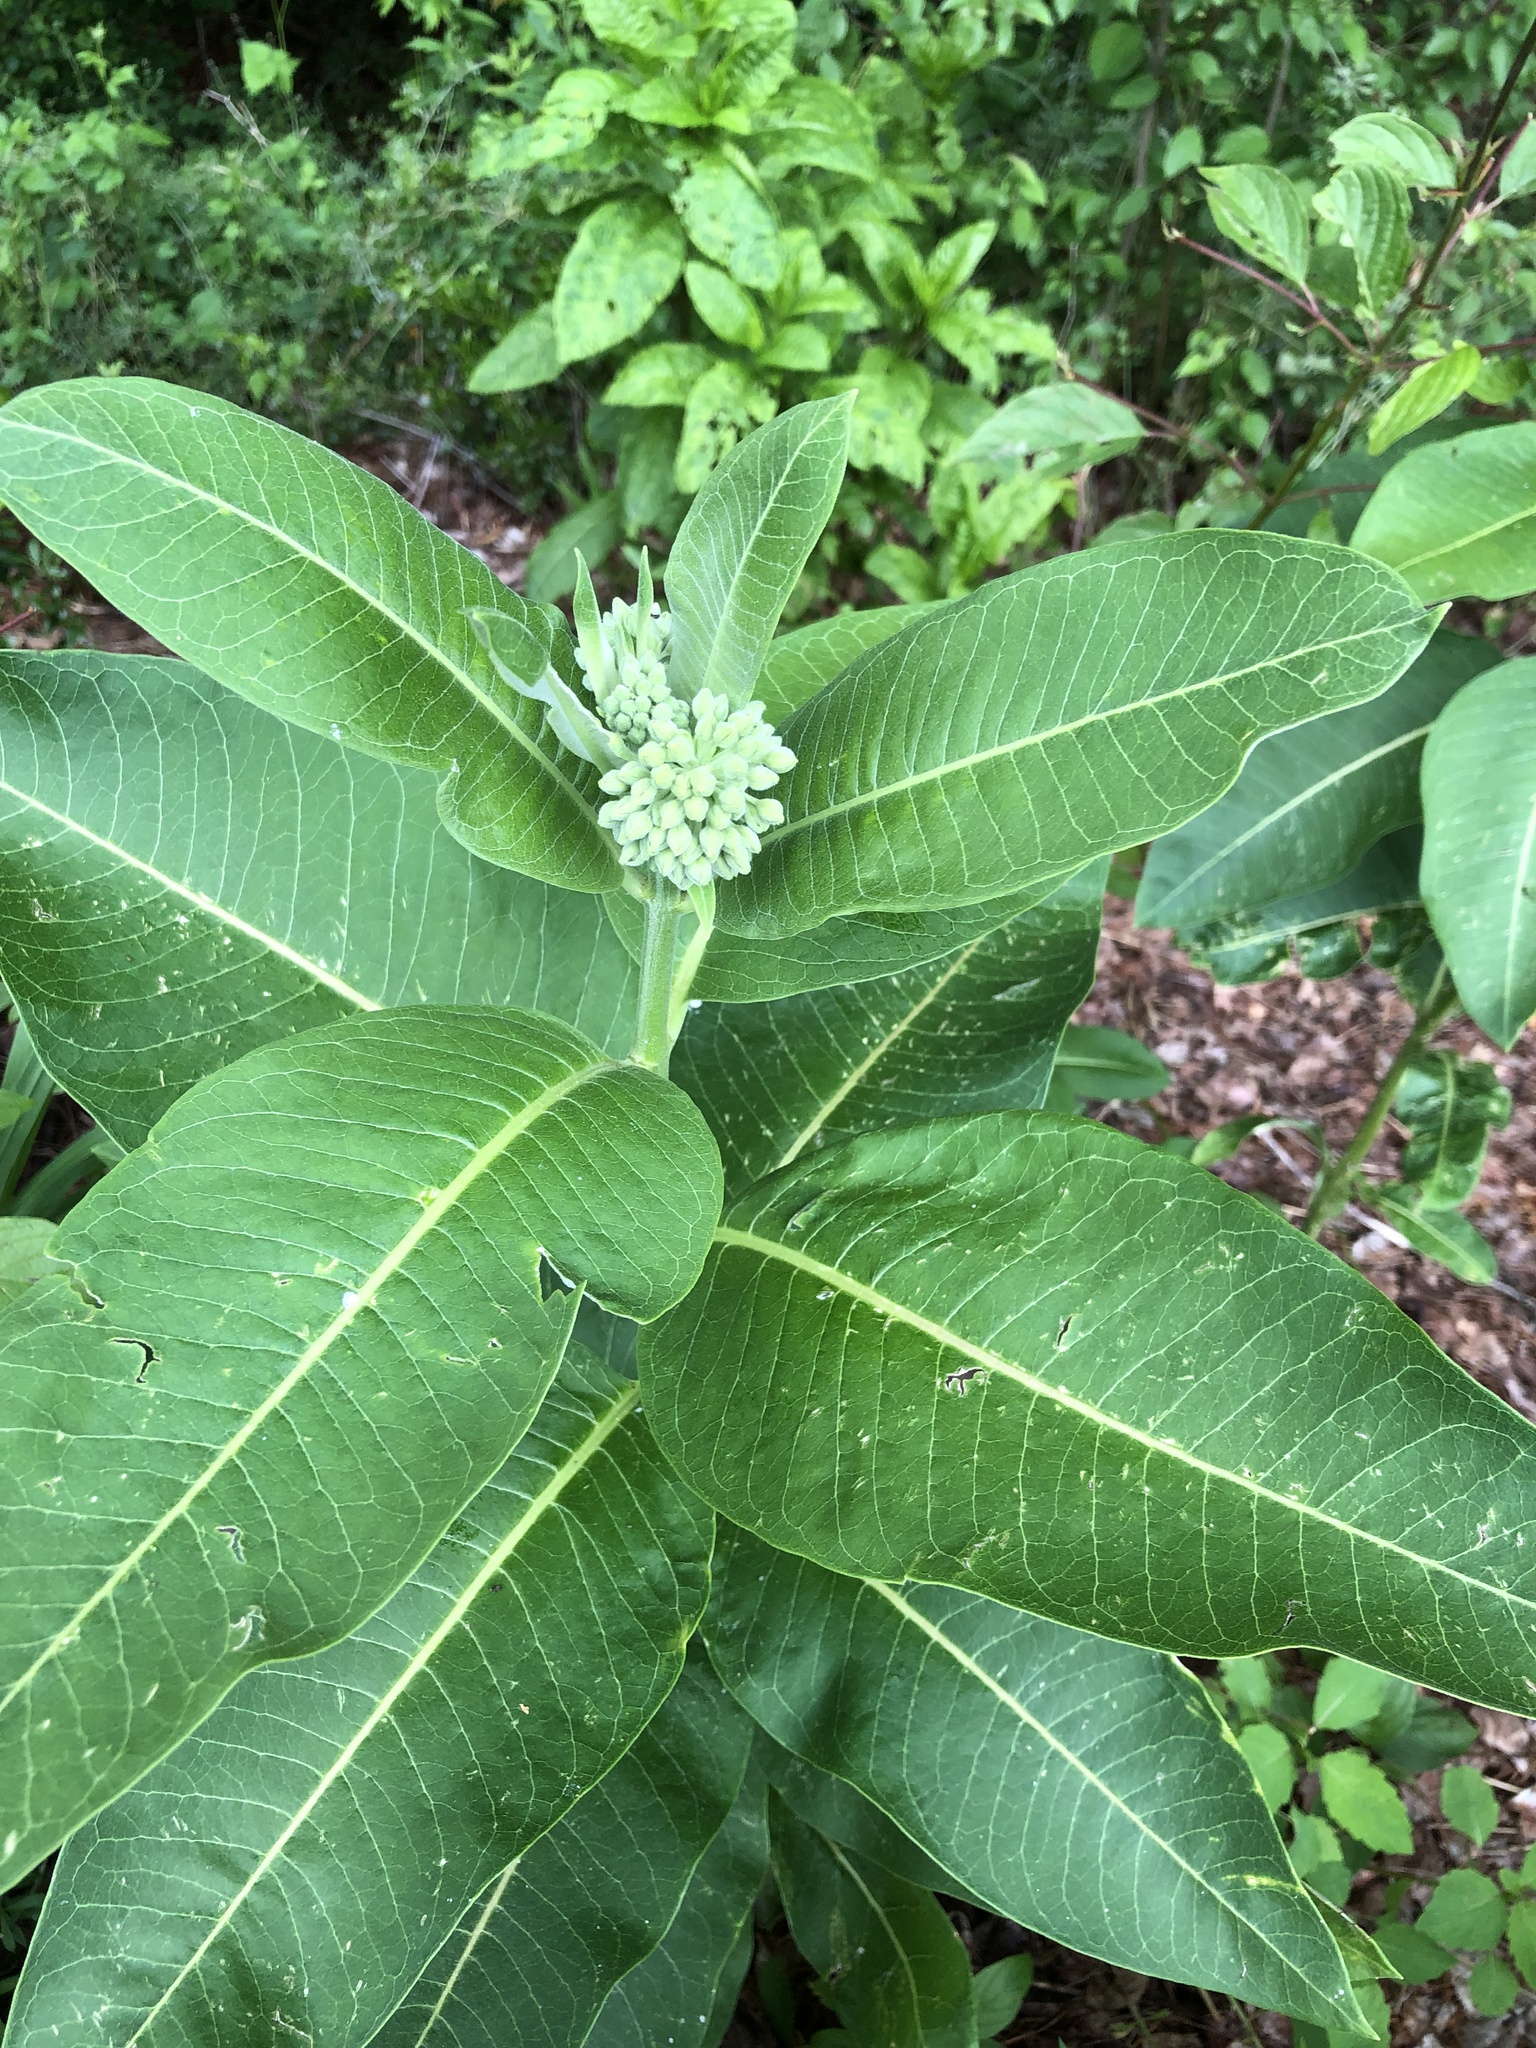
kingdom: Plantae
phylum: Tracheophyta
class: Magnoliopsida
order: Gentianales
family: Apocynaceae
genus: Asclepias
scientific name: Asclepias syriaca
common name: Common milkweed
